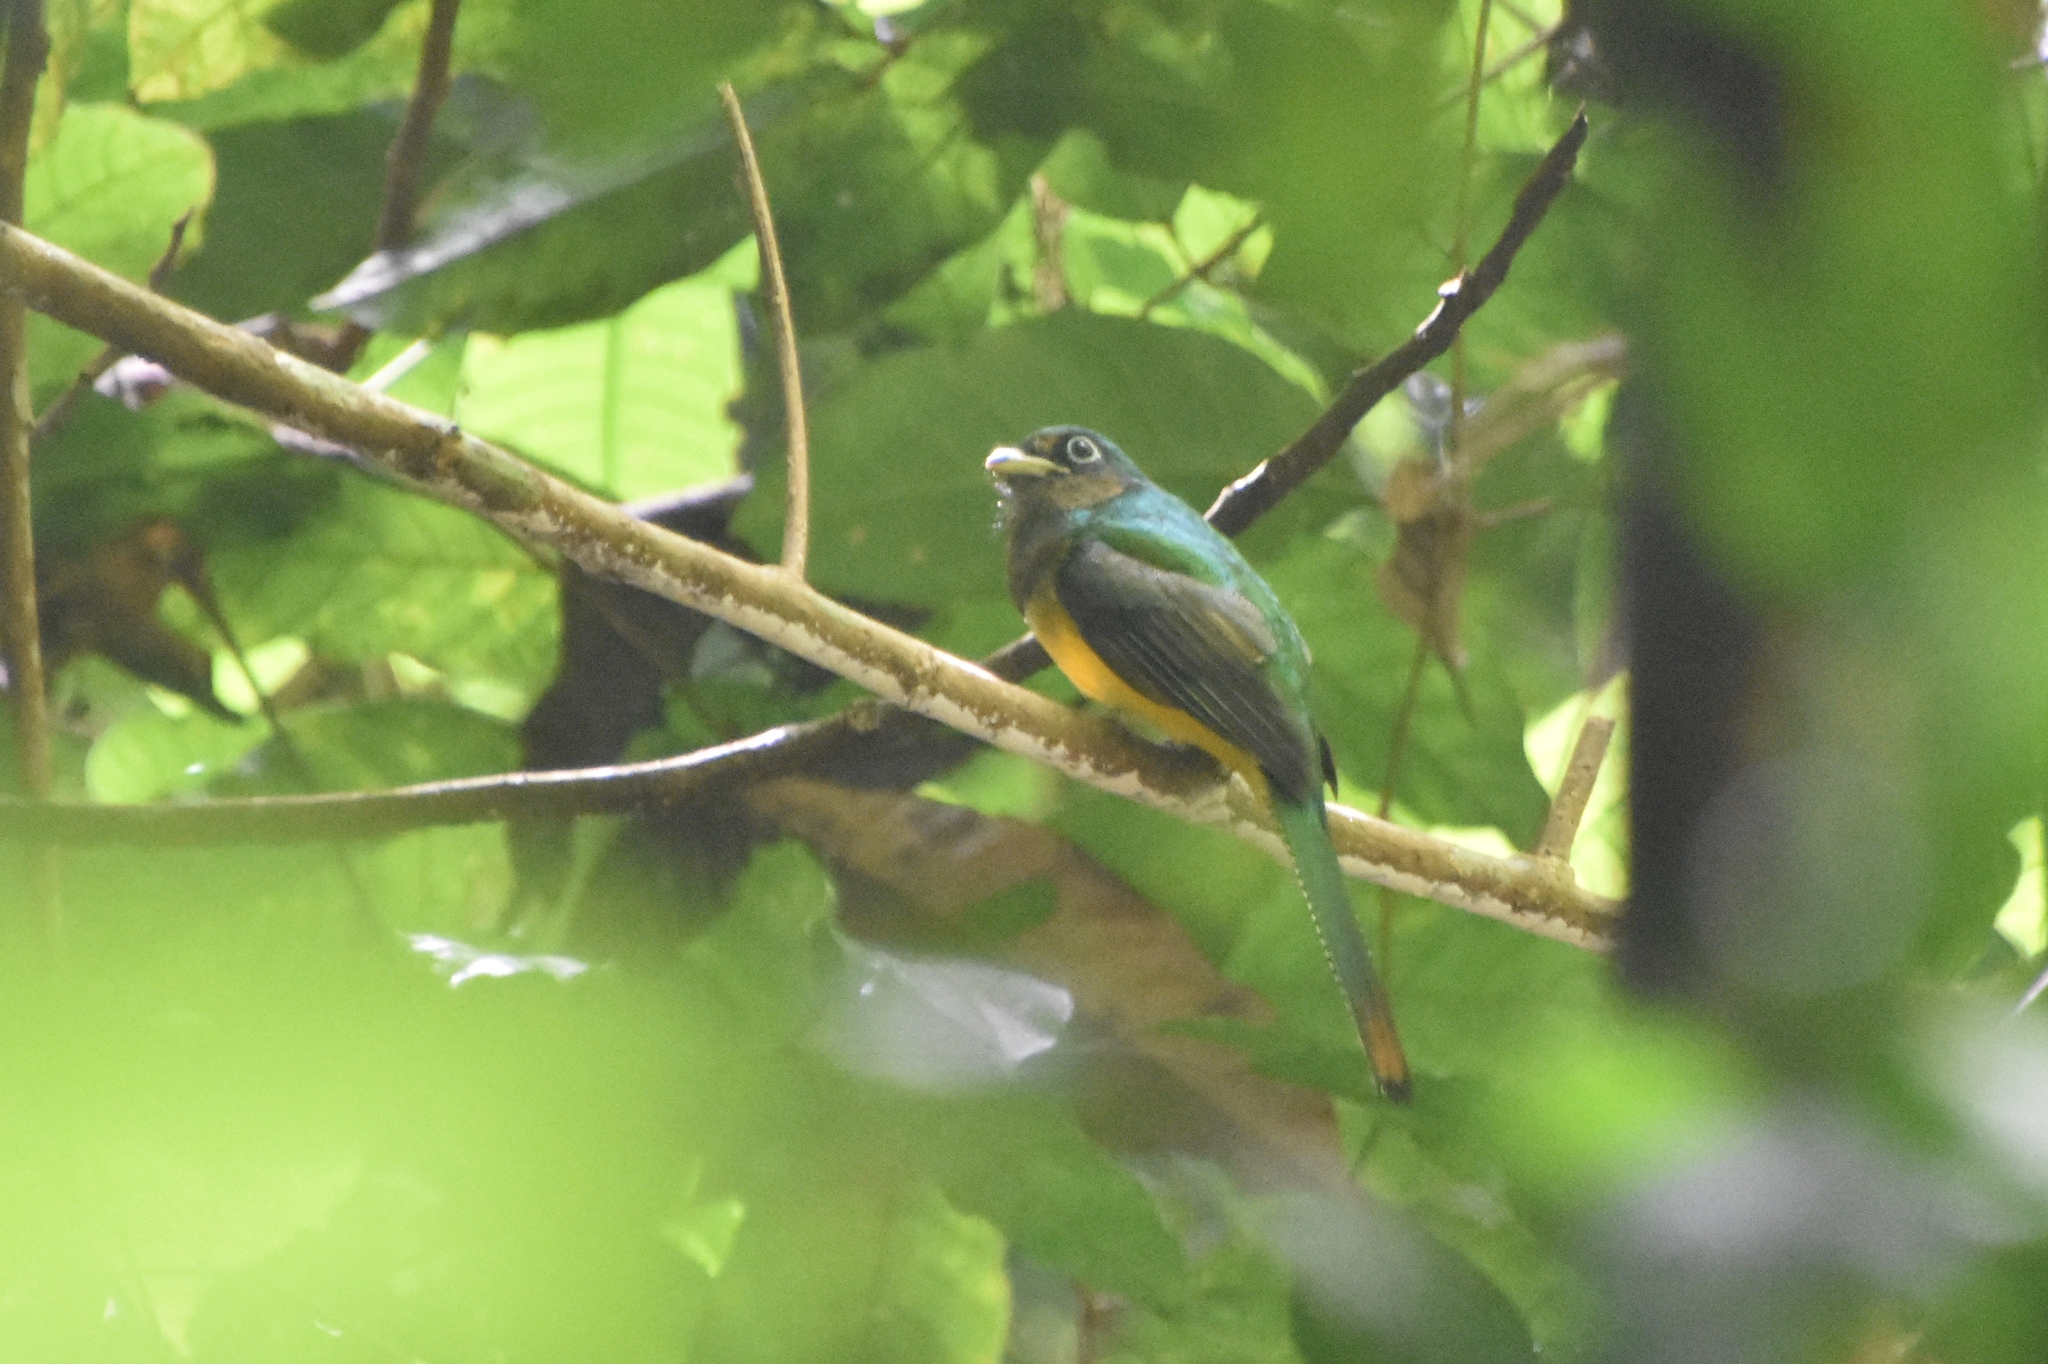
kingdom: Animalia
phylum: Chordata
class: Aves
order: Trogoniformes
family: Trogonidae
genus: Trogon
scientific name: Trogon rufus
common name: Black-throated trogon
